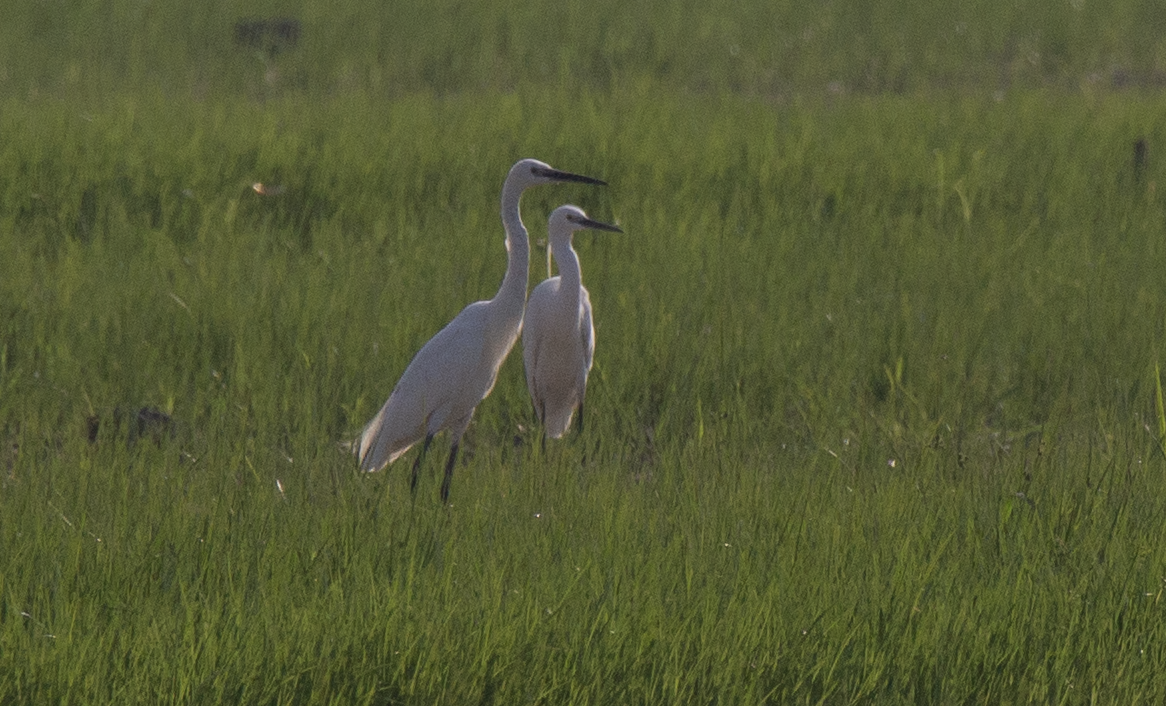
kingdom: Animalia
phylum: Chordata
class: Aves
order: Pelecaniformes
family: Ardeidae
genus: Egretta
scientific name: Egretta garzetta
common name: Little egret
